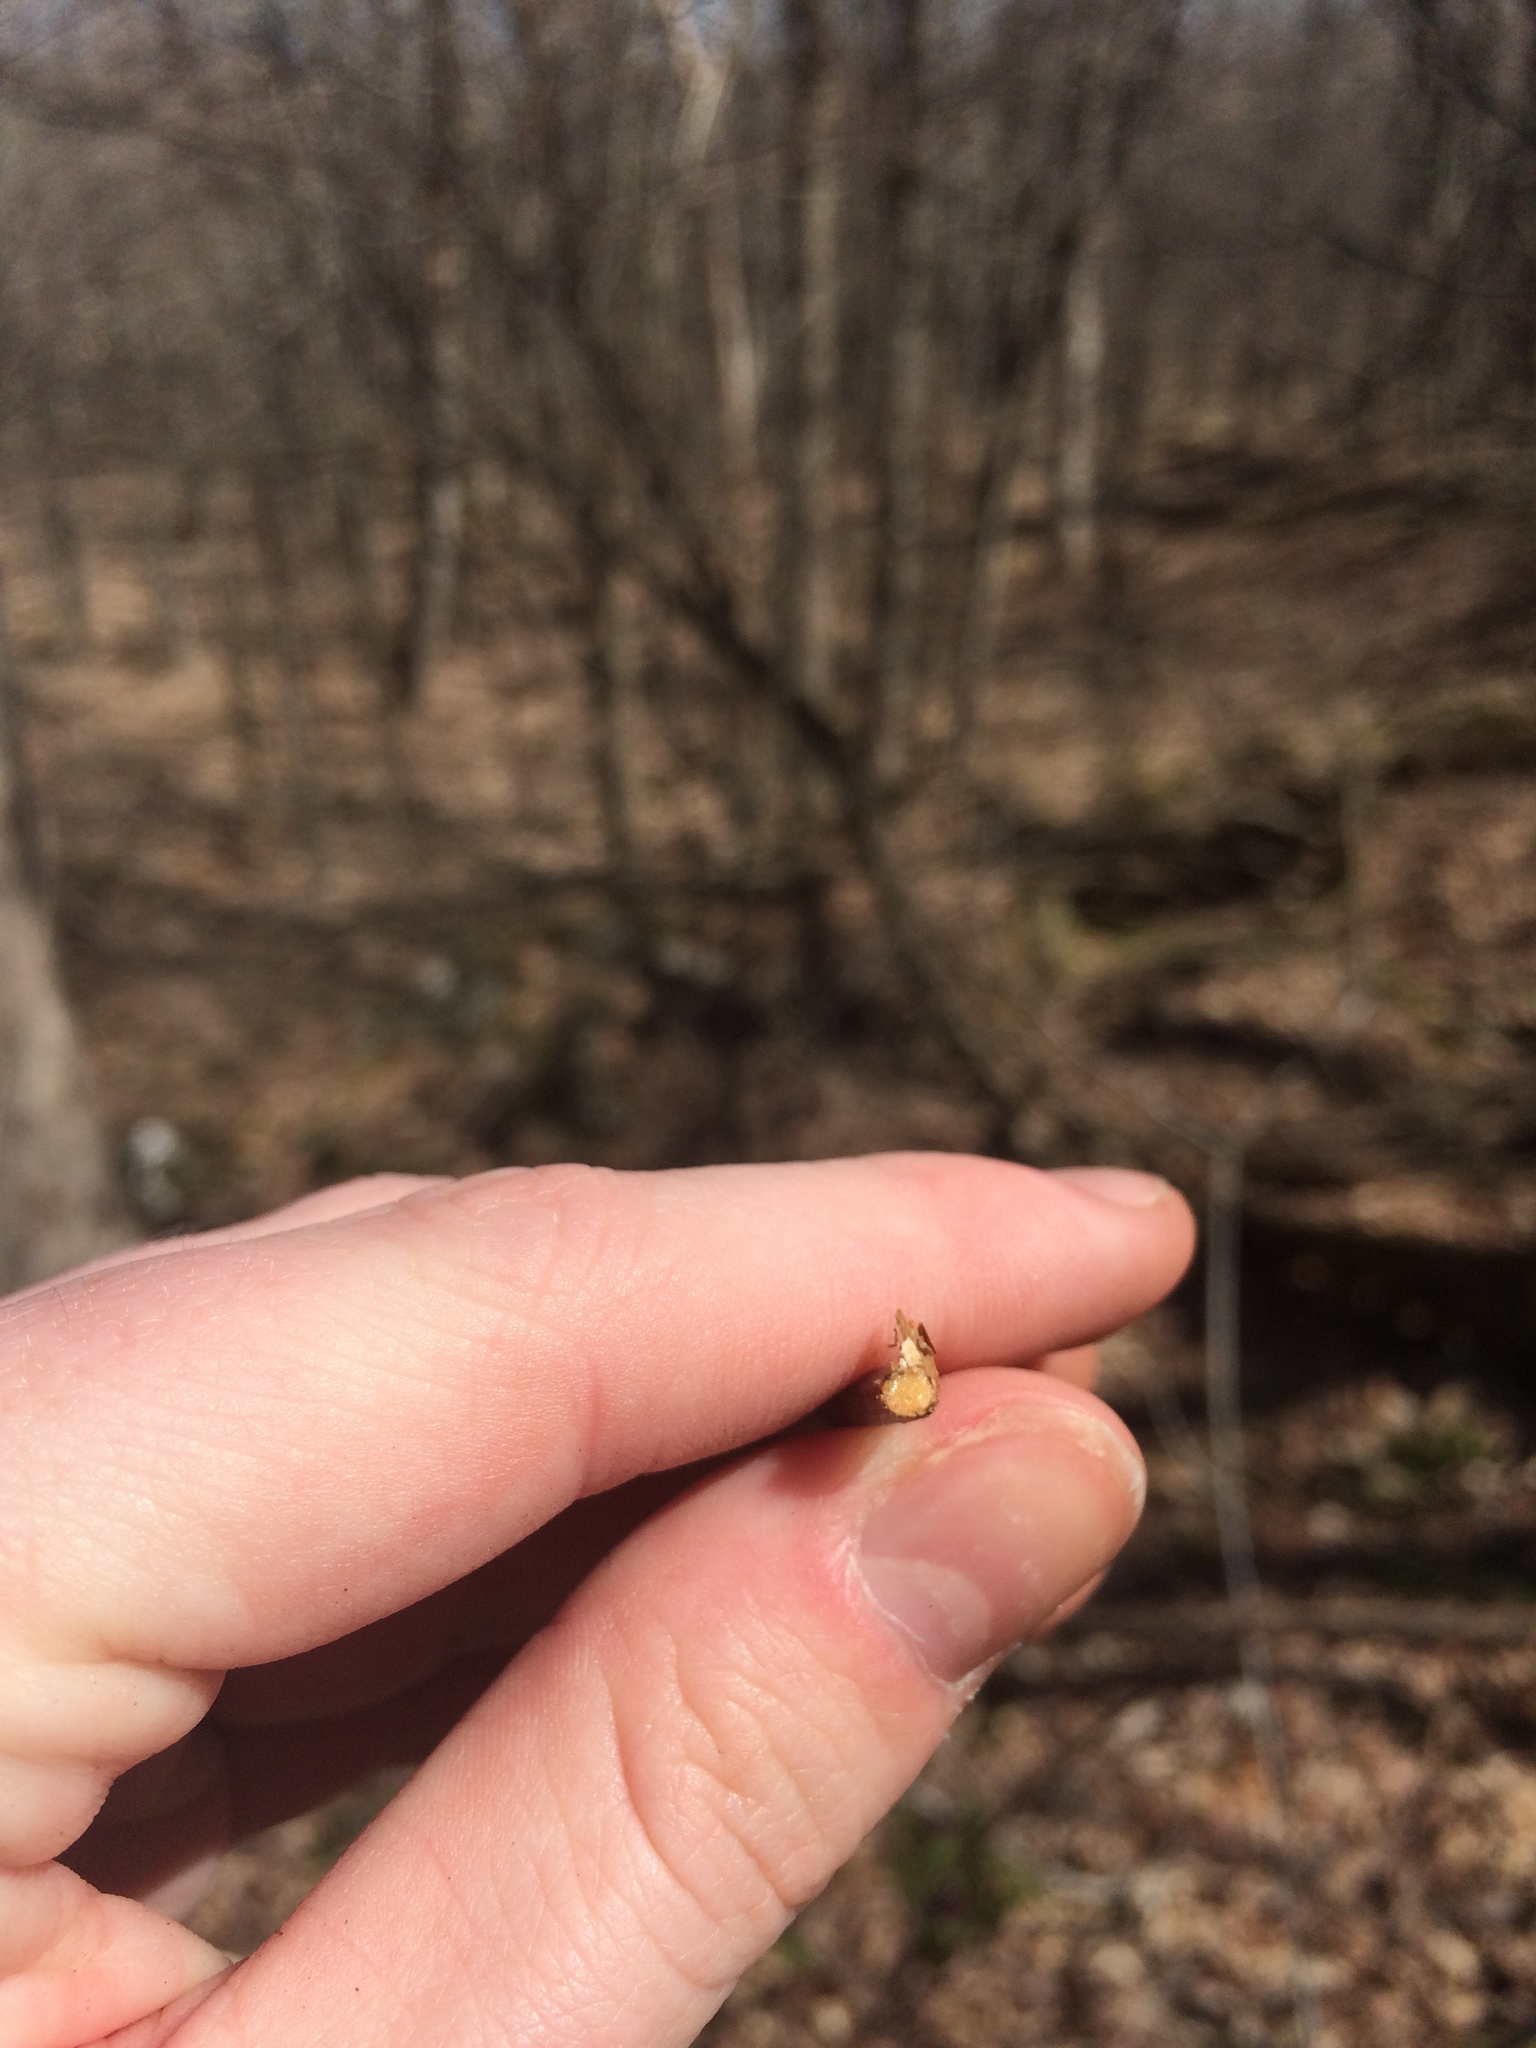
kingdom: Plantae
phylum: Tracheophyta
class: Magnoliopsida
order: Dipsacales
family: Viburnaceae
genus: Sambucus
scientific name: Sambucus racemosa
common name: Red-berried elder
